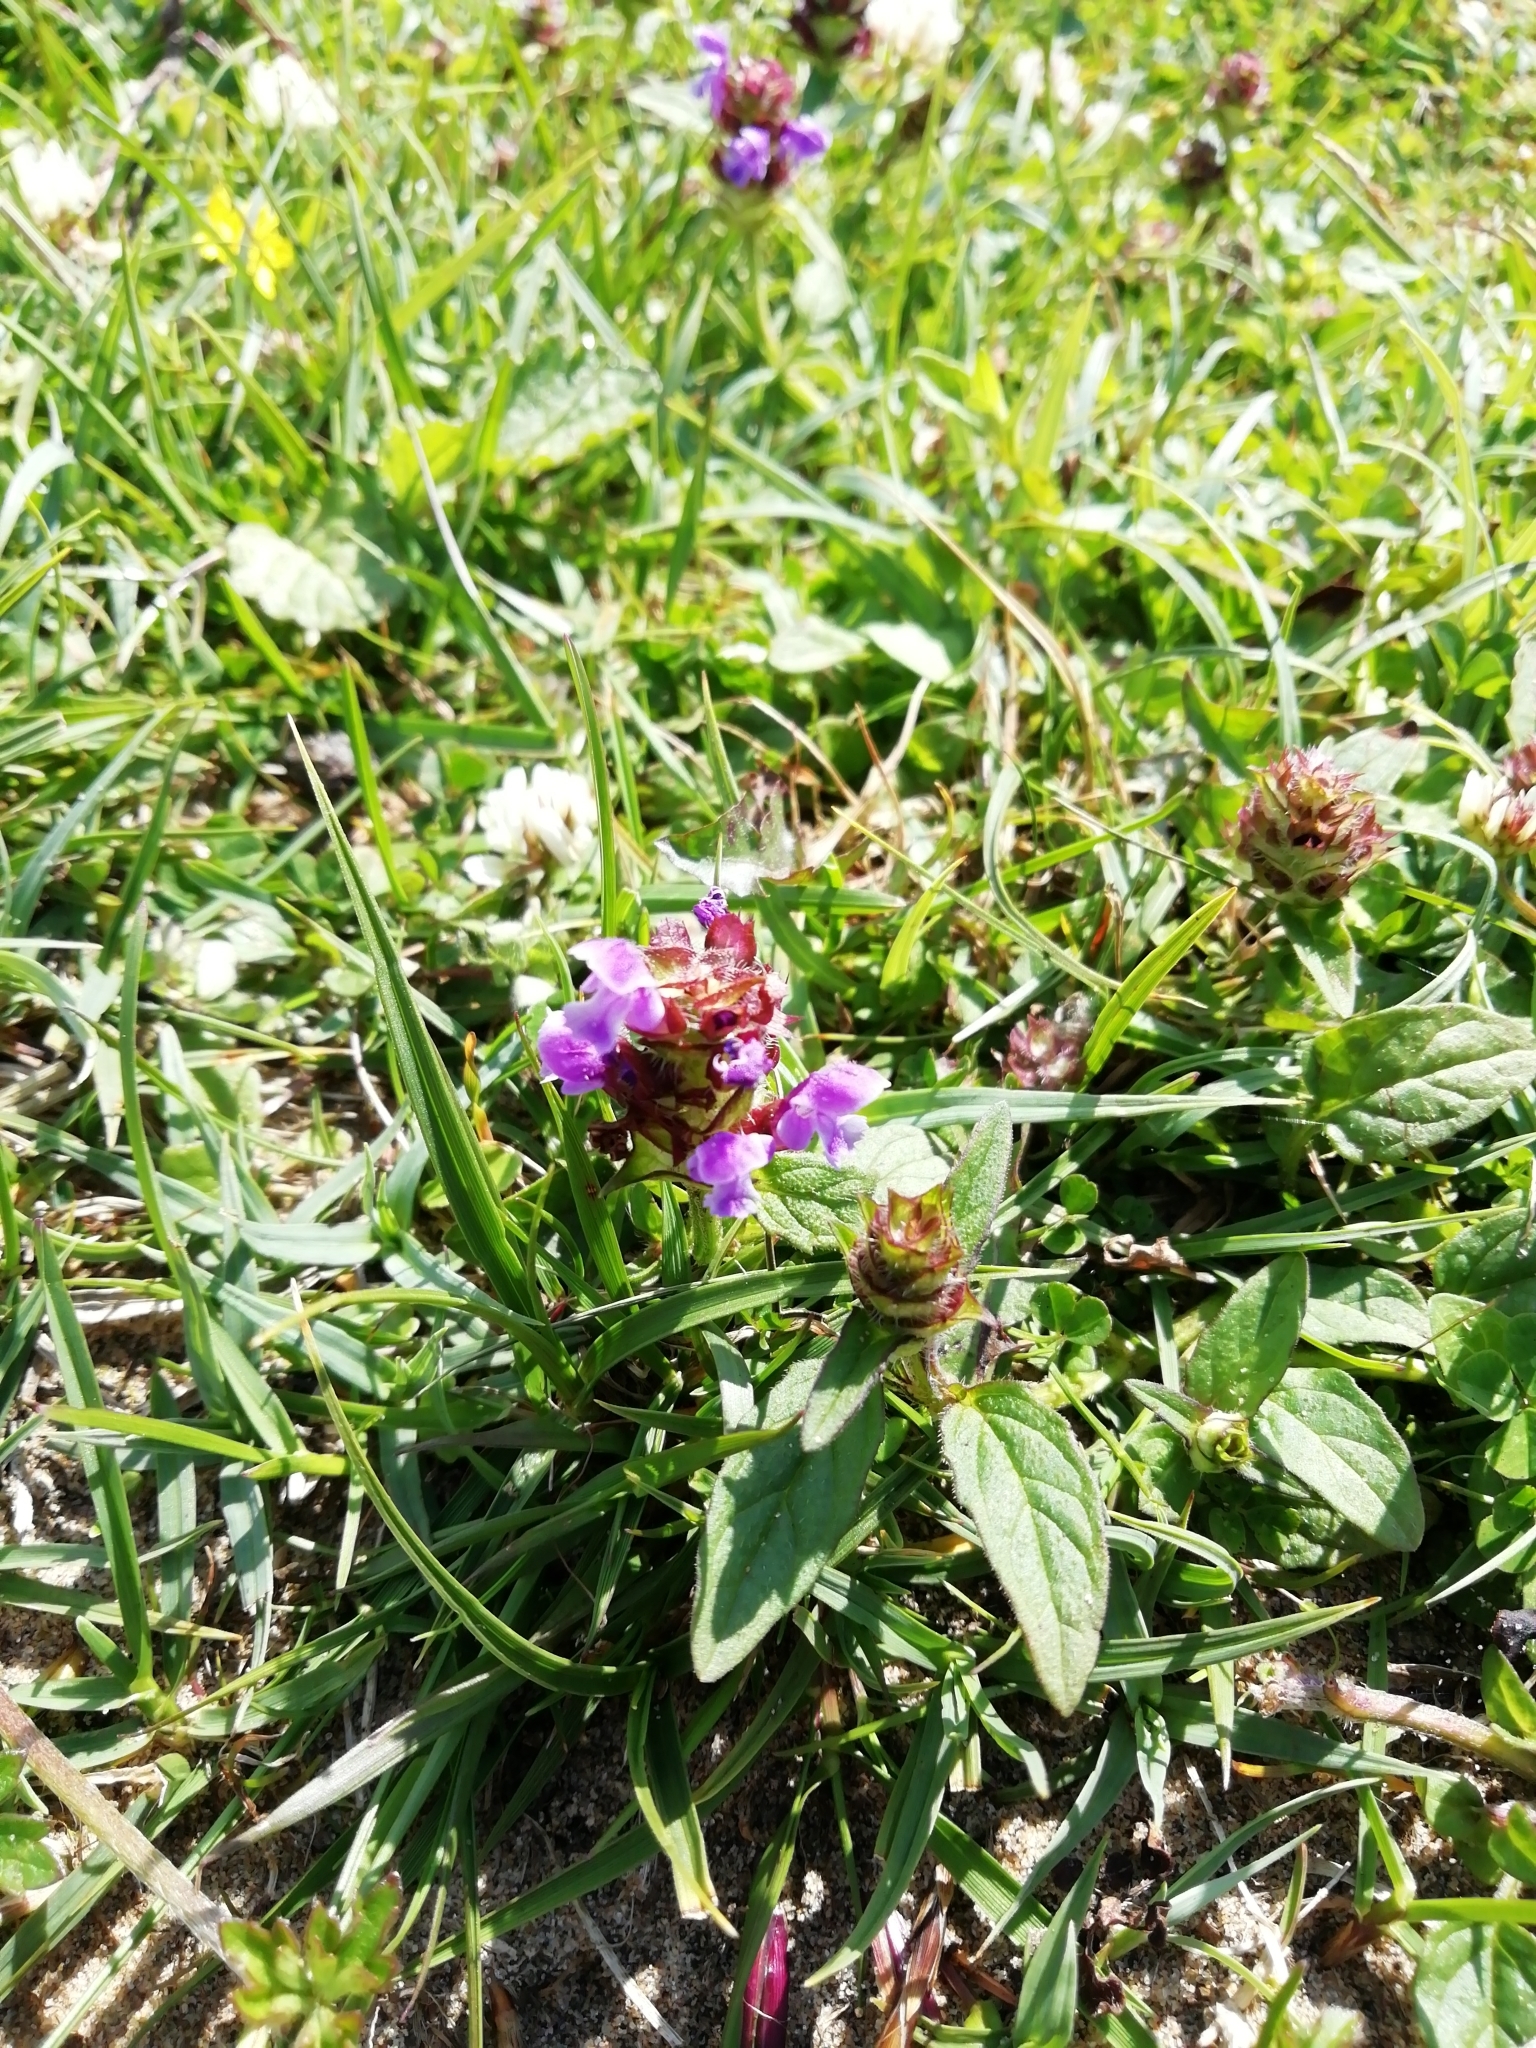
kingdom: Plantae
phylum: Tracheophyta
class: Magnoliopsida
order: Lamiales
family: Lamiaceae
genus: Prunella
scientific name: Prunella vulgaris
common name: Heal-all
